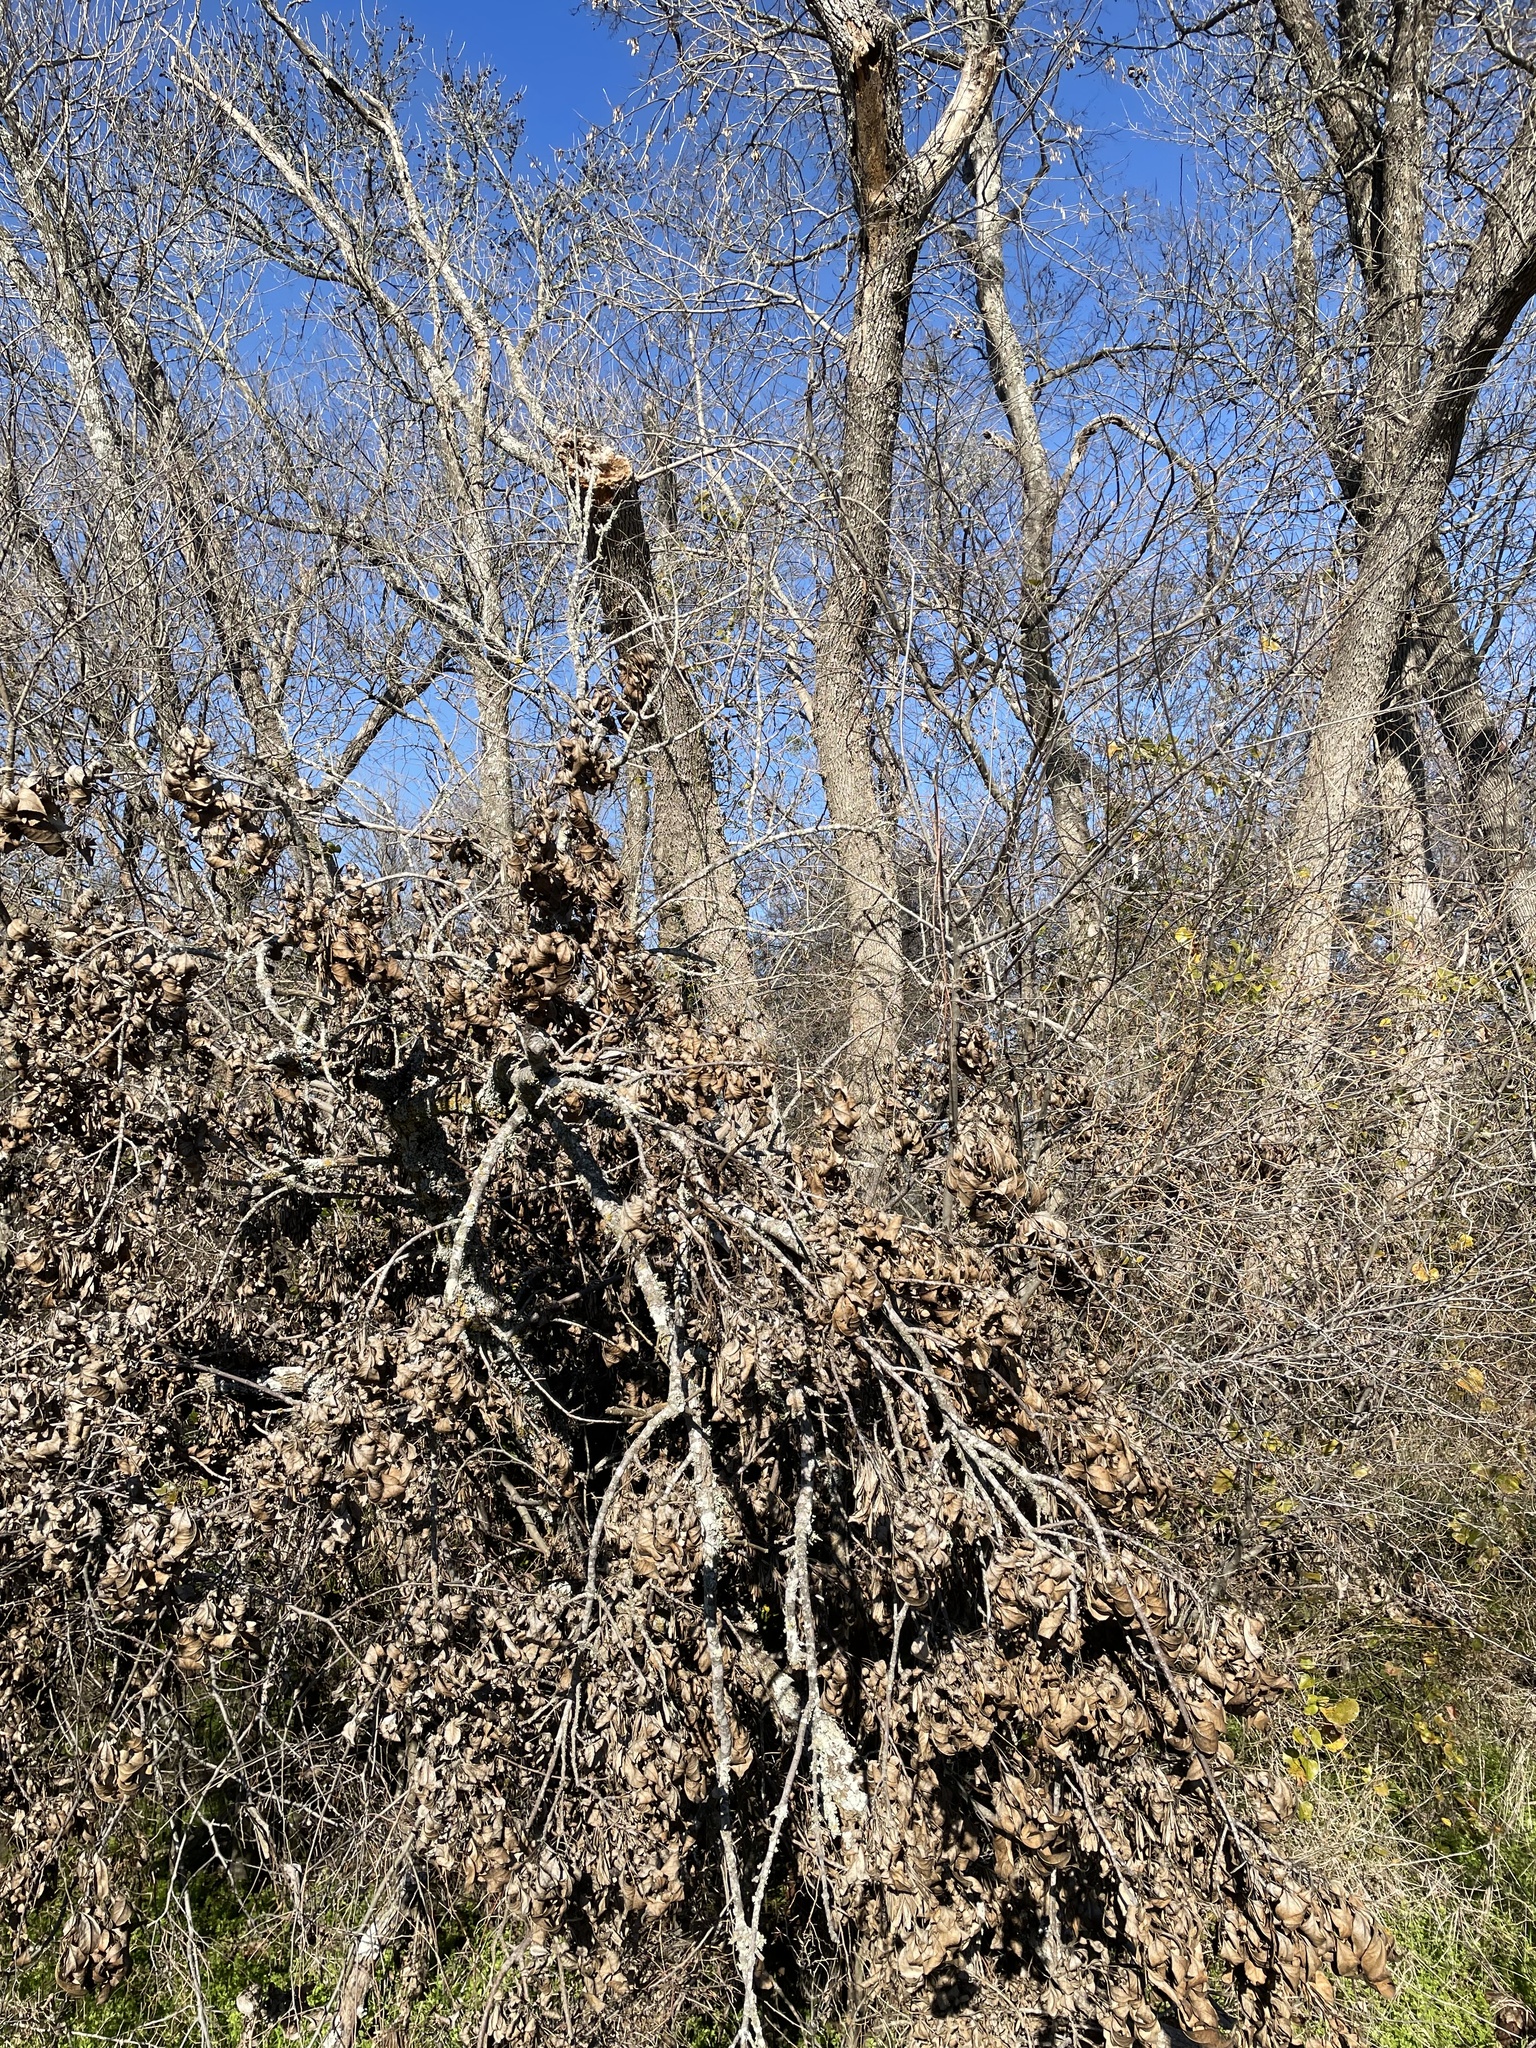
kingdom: Plantae
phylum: Tracheophyta
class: Magnoliopsida
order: Lamiales
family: Oleaceae
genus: Fraxinus
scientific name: Fraxinus pennsylvanica
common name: Green ash
